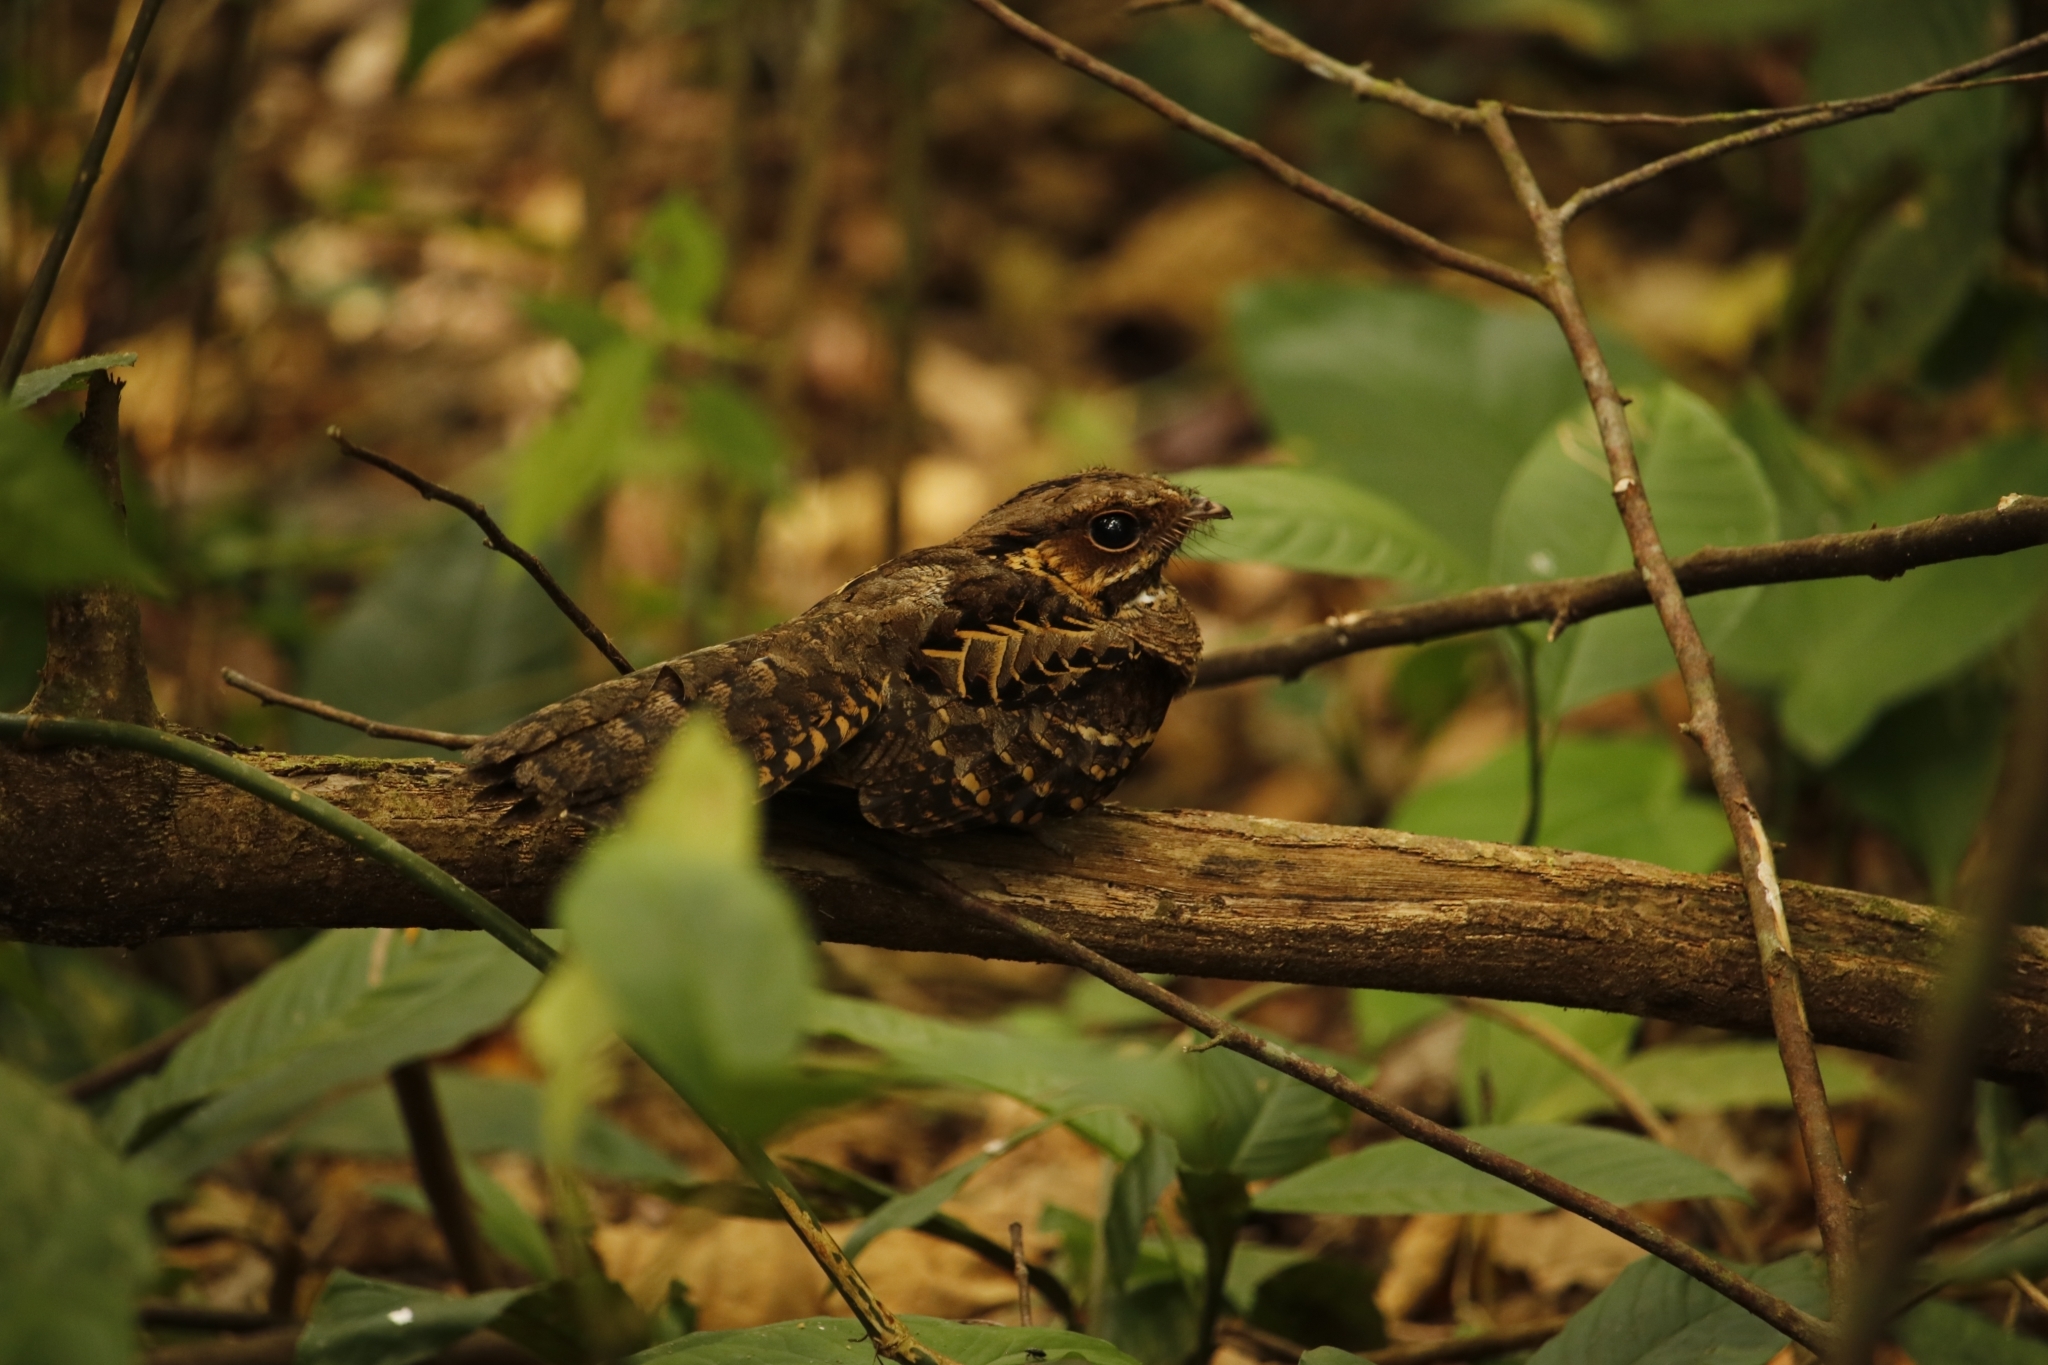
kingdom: Animalia
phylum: Chordata
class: Aves
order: Caprimulgiformes
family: Caprimulgidae
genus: Nyctidromus
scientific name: Nyctidromus albicollis
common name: Pauraque
